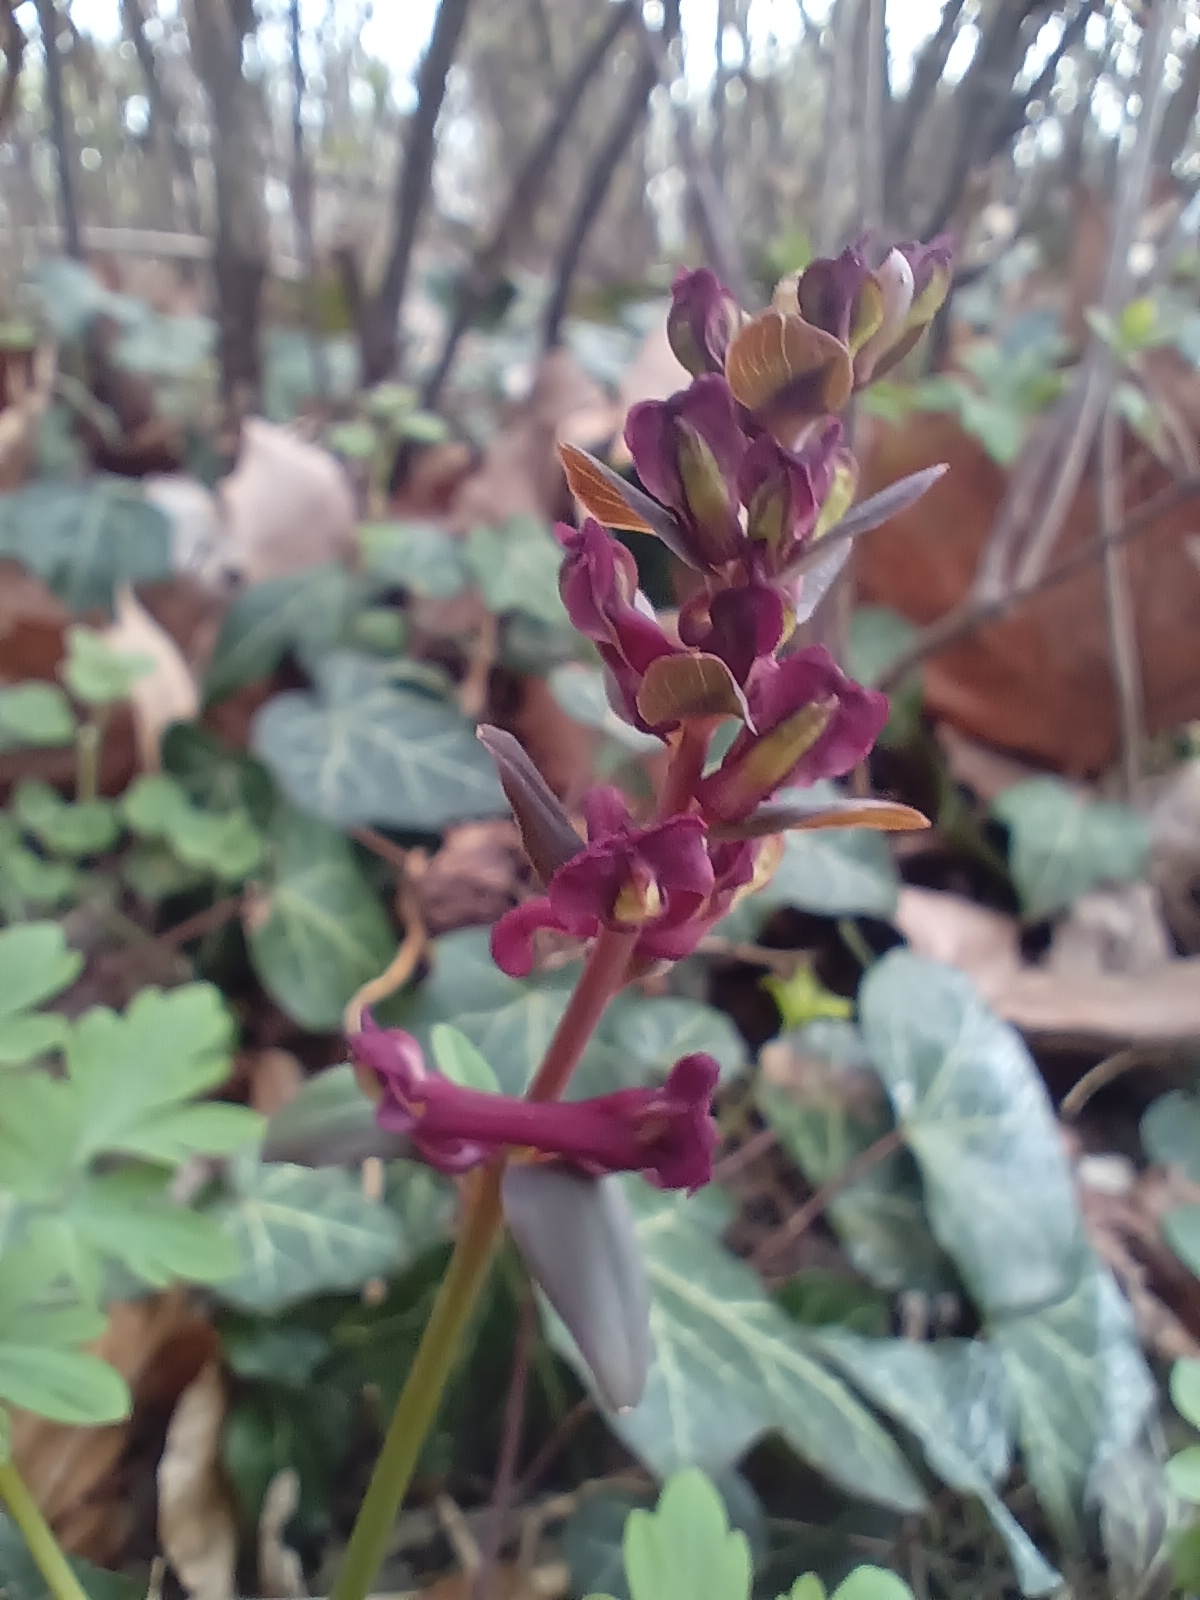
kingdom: Plantae
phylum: Tracheophyta
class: Magnoliopsida
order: Ranunculales
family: Papaveraceae
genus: Corydalis
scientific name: Corydalis cava
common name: Hollowroot
